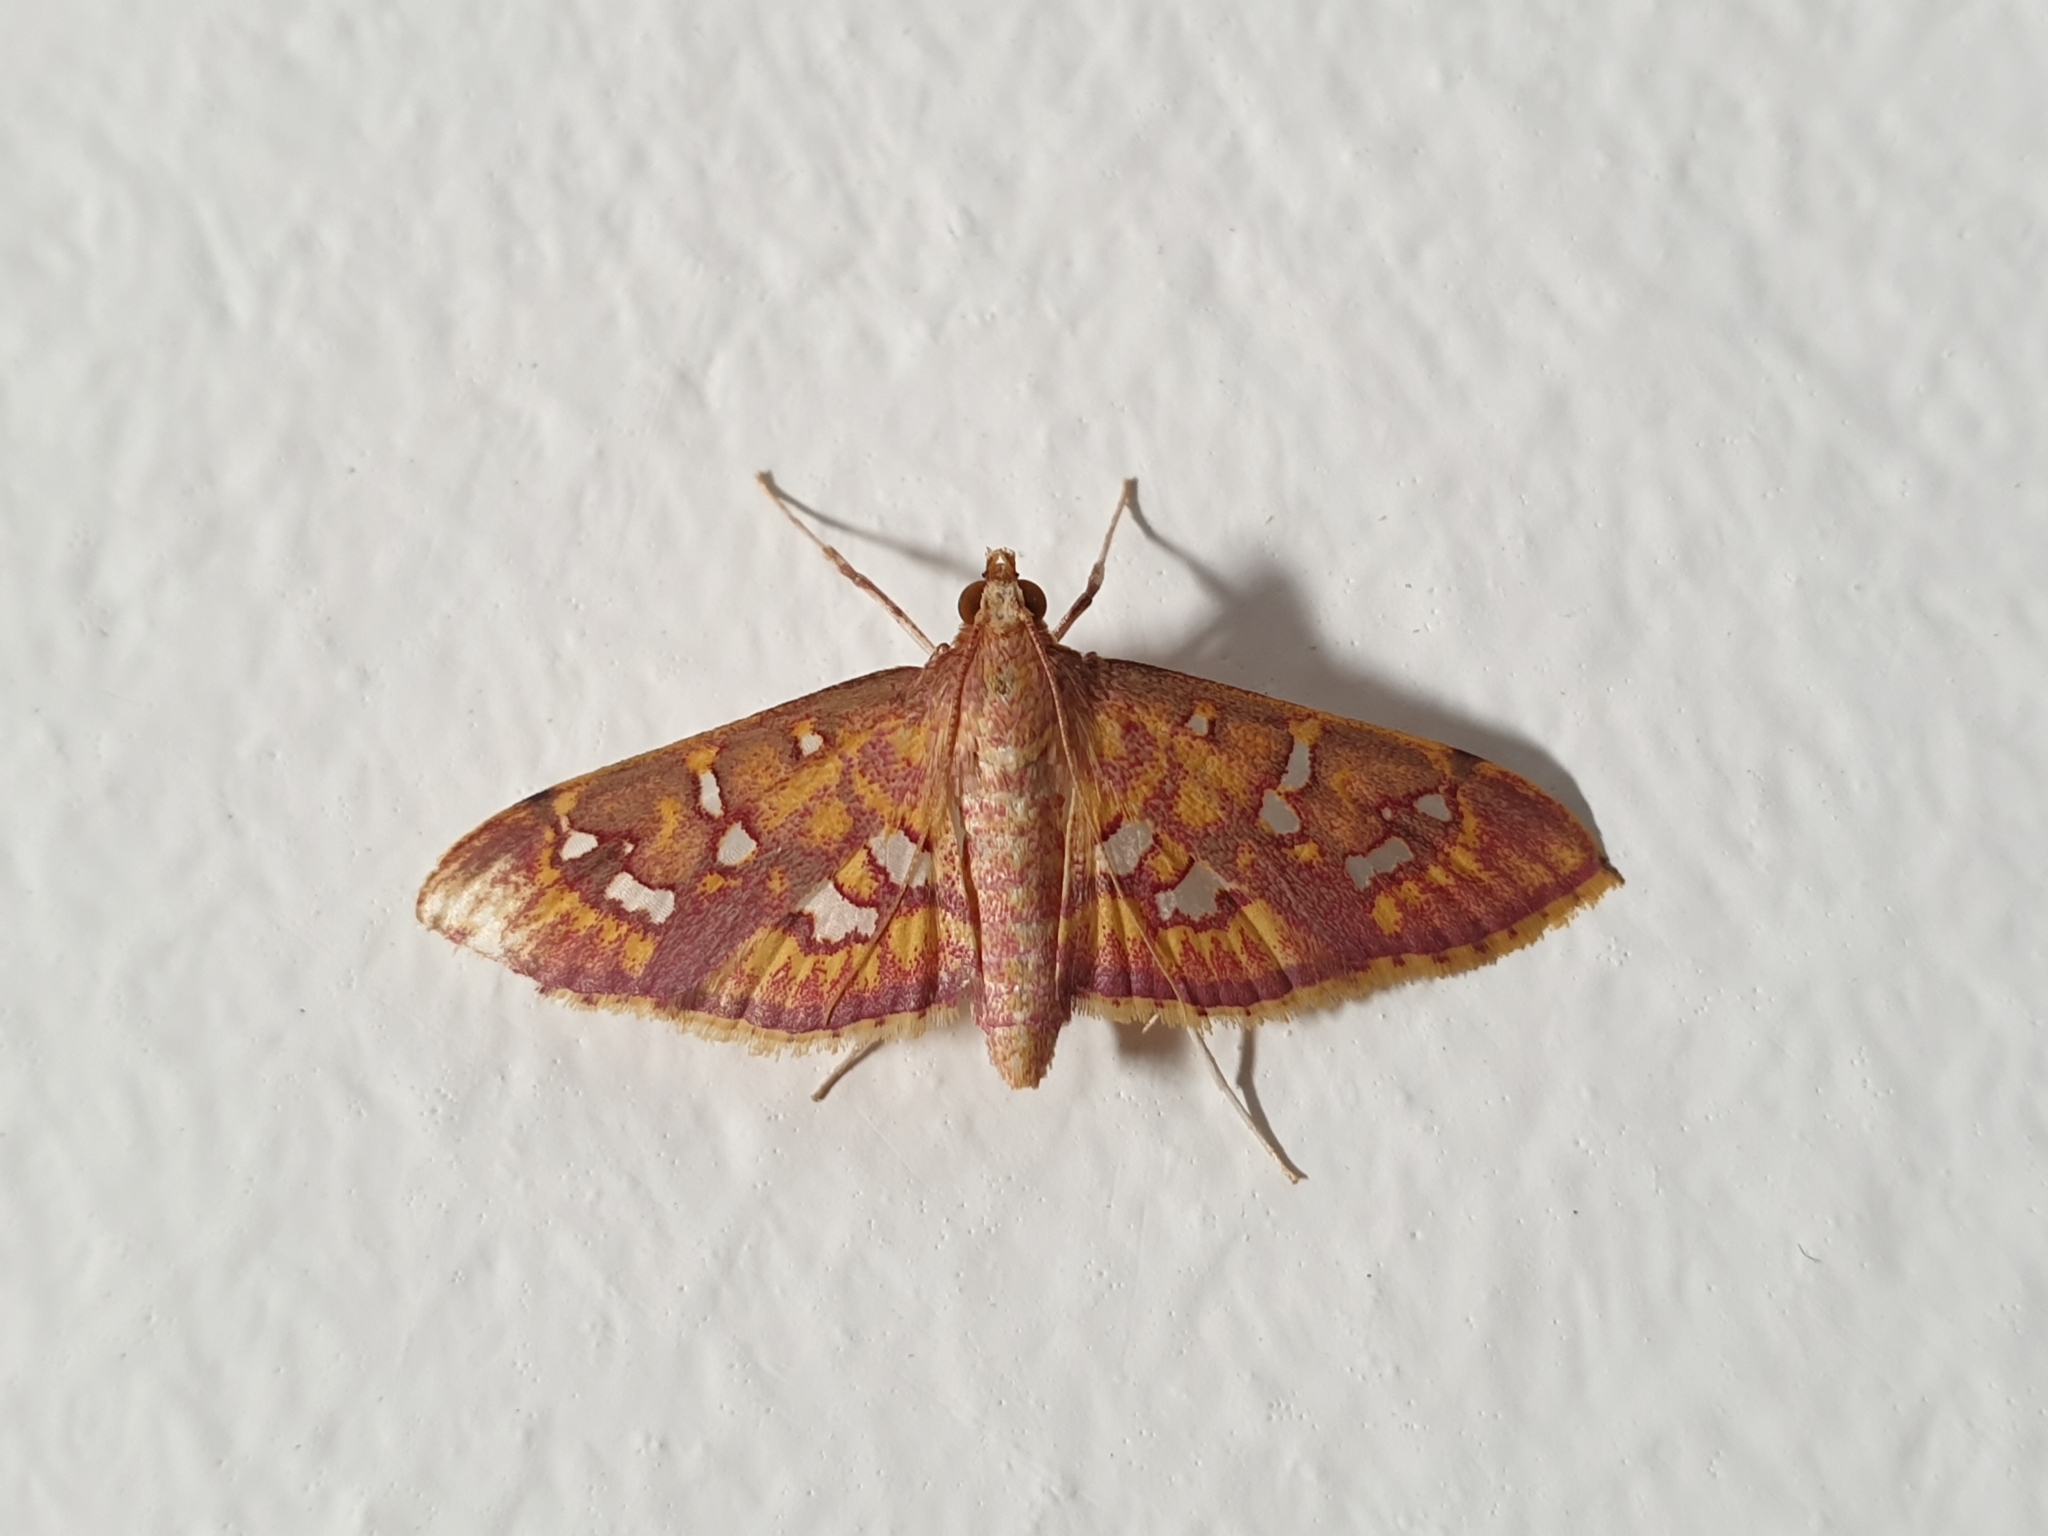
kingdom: Animalia
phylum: Arthropoda
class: Insecta
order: Lepidoptera
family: Crambidae
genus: Ischnurges
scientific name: Ischnurges gratiosalis
